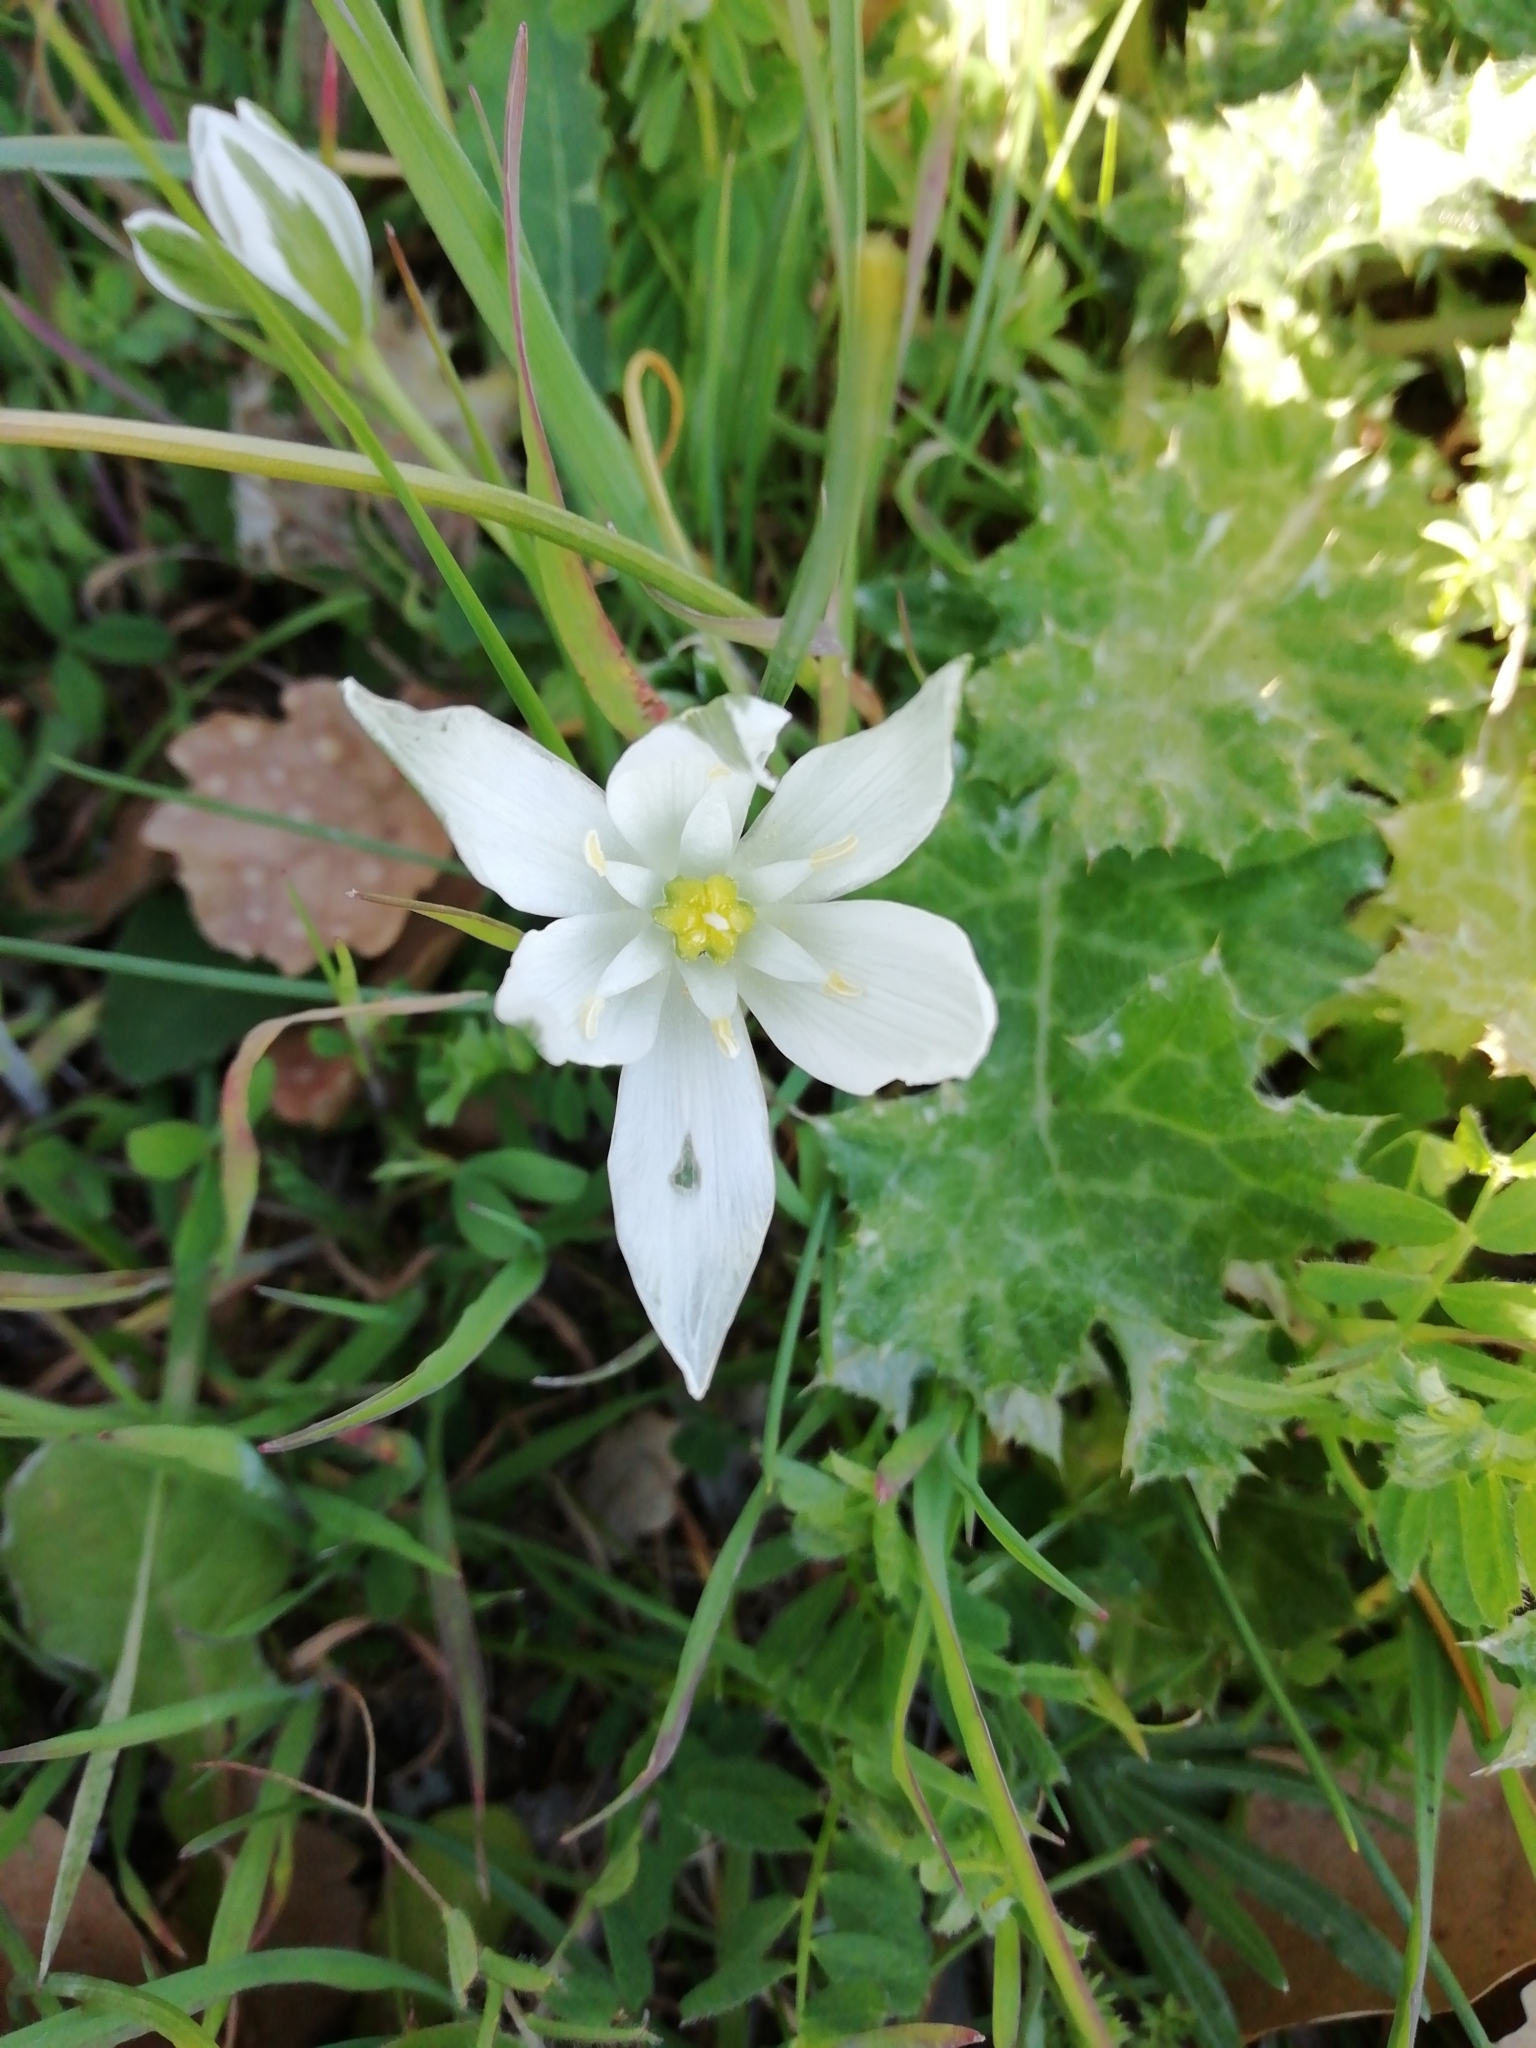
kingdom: Plantae
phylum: Tracheophyta
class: Liliopsida
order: Asparagales
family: Asparagaceae
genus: Ornithogalum
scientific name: Ornithogalum umbellatum
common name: Garden star-of-bethlehem
